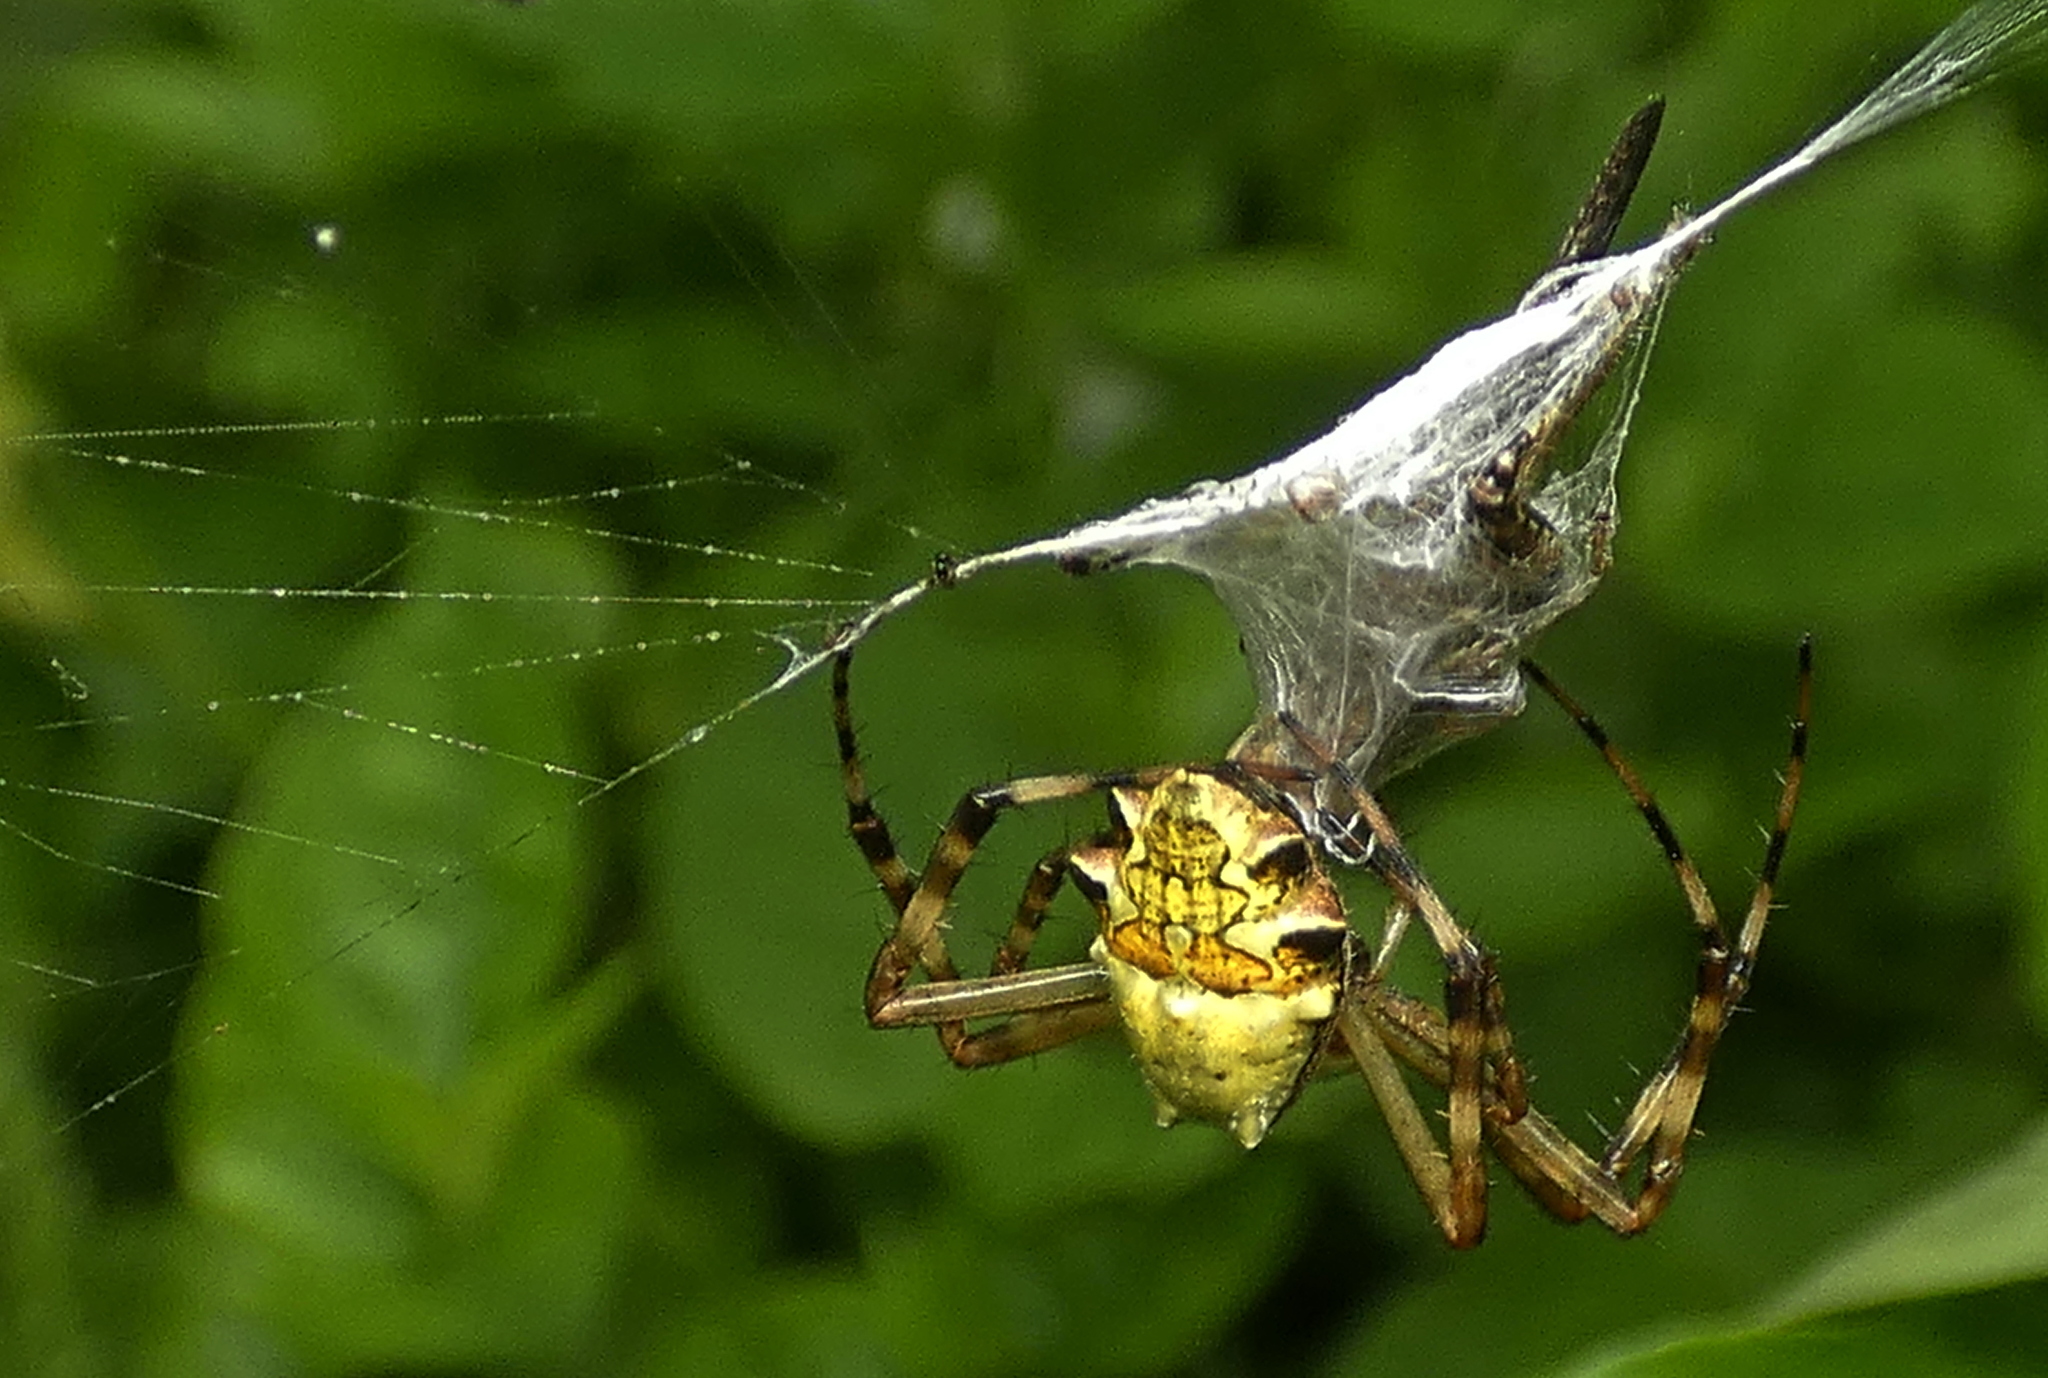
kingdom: Animalia
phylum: Arthropoda
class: Arachnida
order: Araneae
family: Araneidae
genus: Argiope
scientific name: Argiope argentata
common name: Orb weavers
